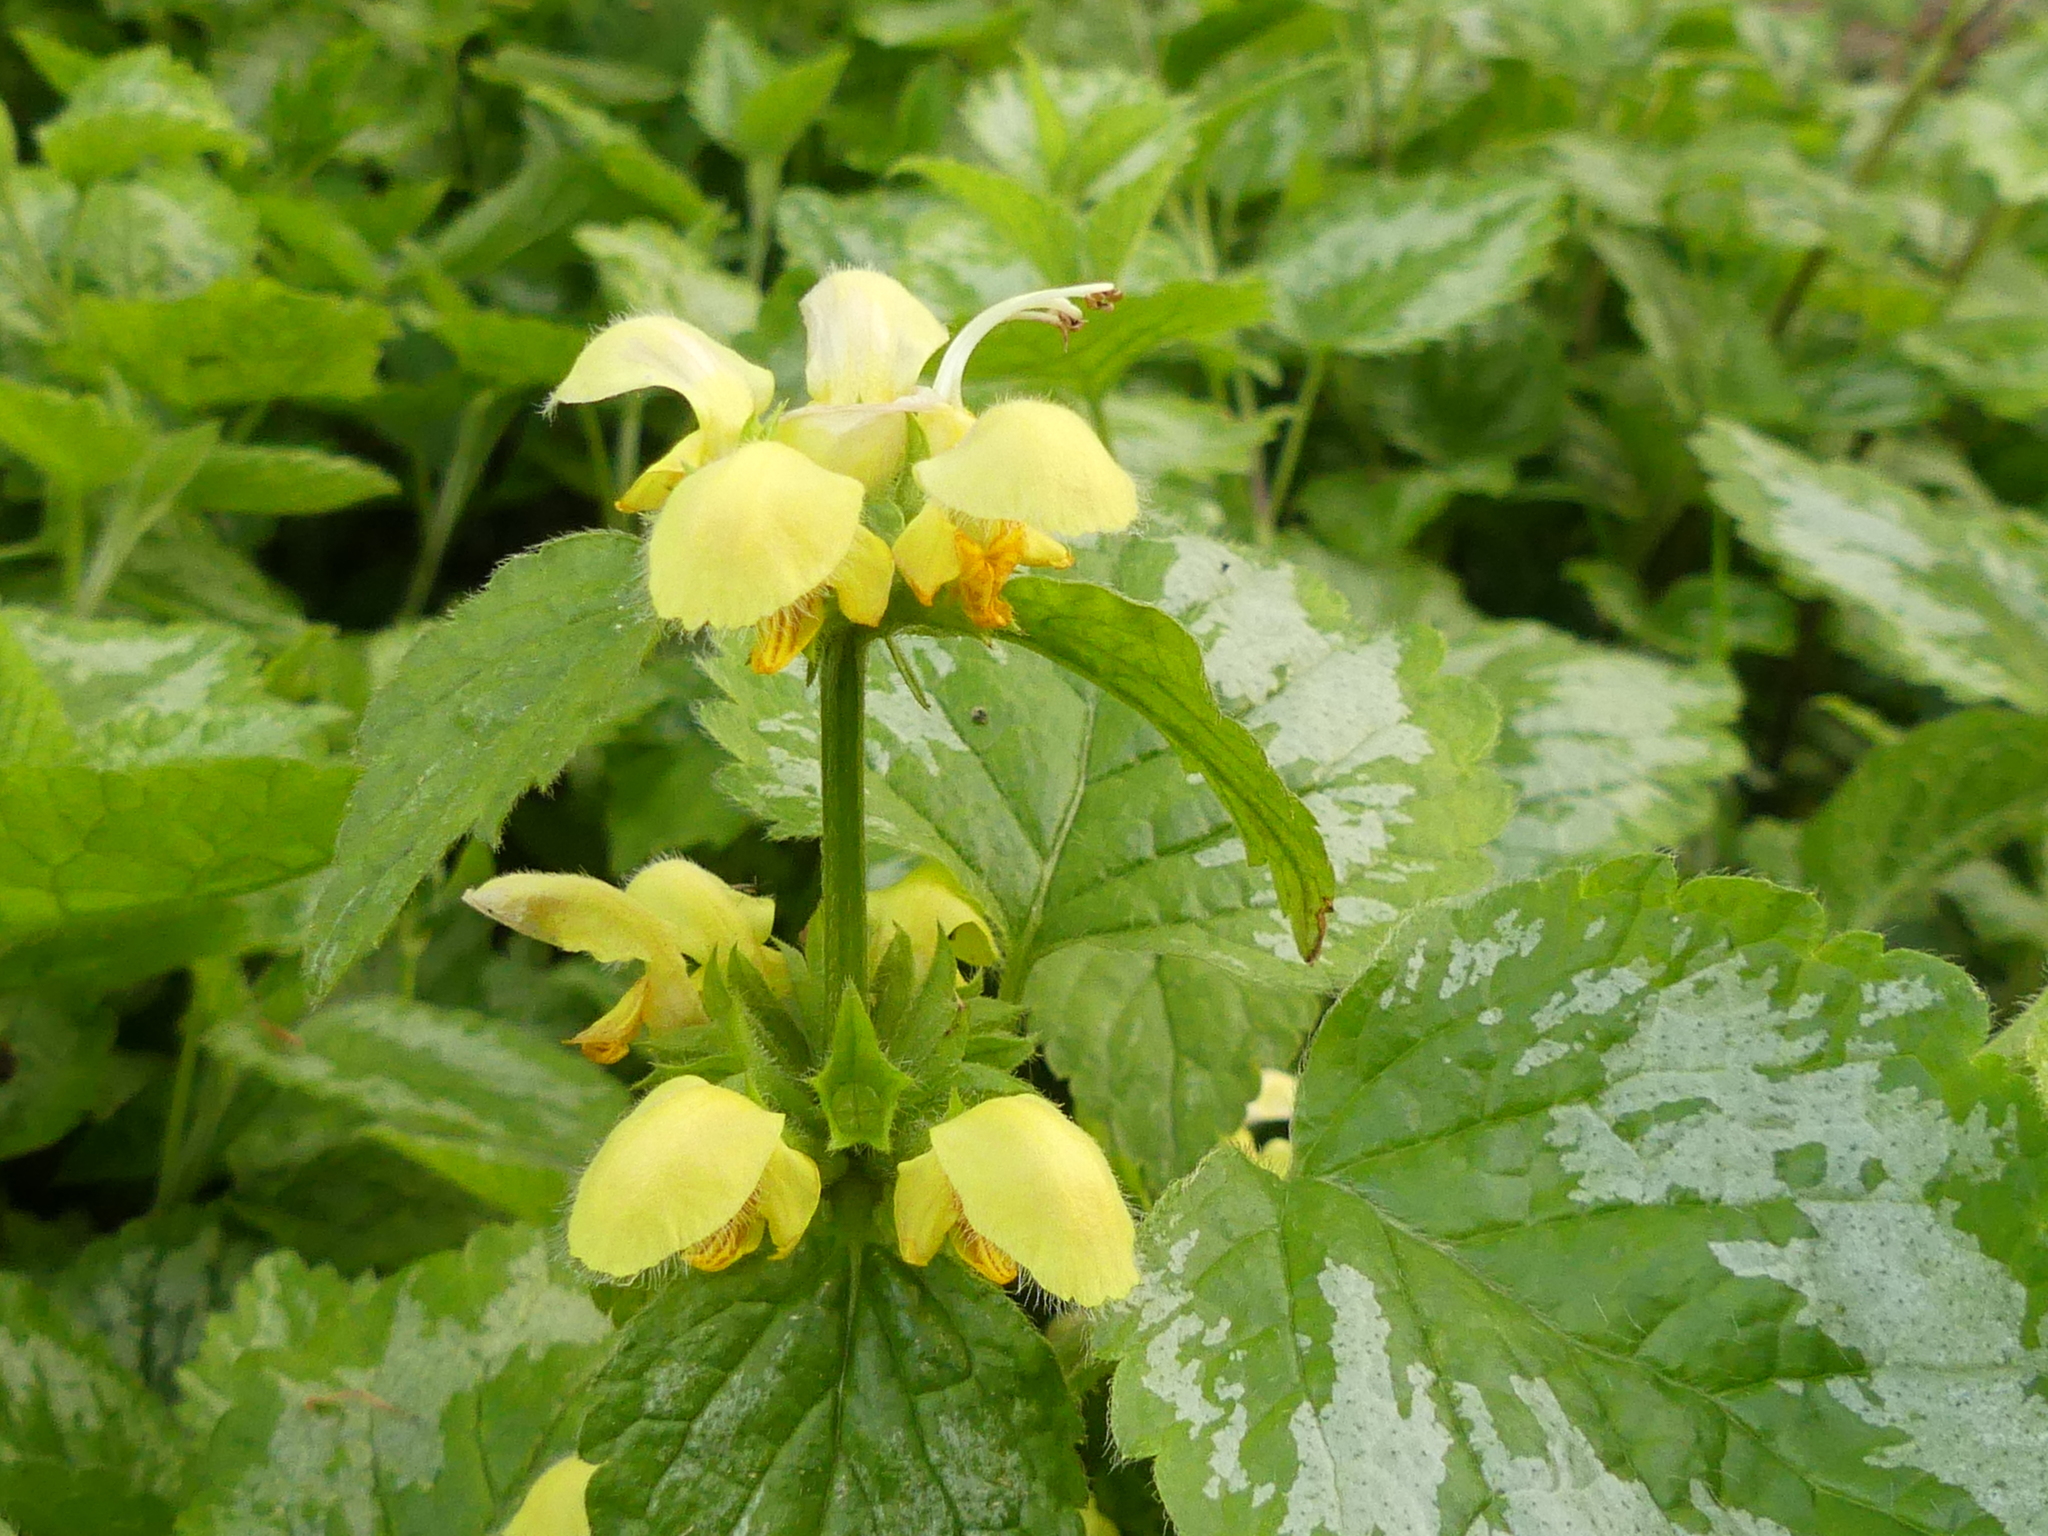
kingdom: Plantae
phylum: Tracheophyta
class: Magnoliopsida
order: Lamiales
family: Lamiaceae
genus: Lamium
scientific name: Lamium galeobdolon
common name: Yellow archangel
